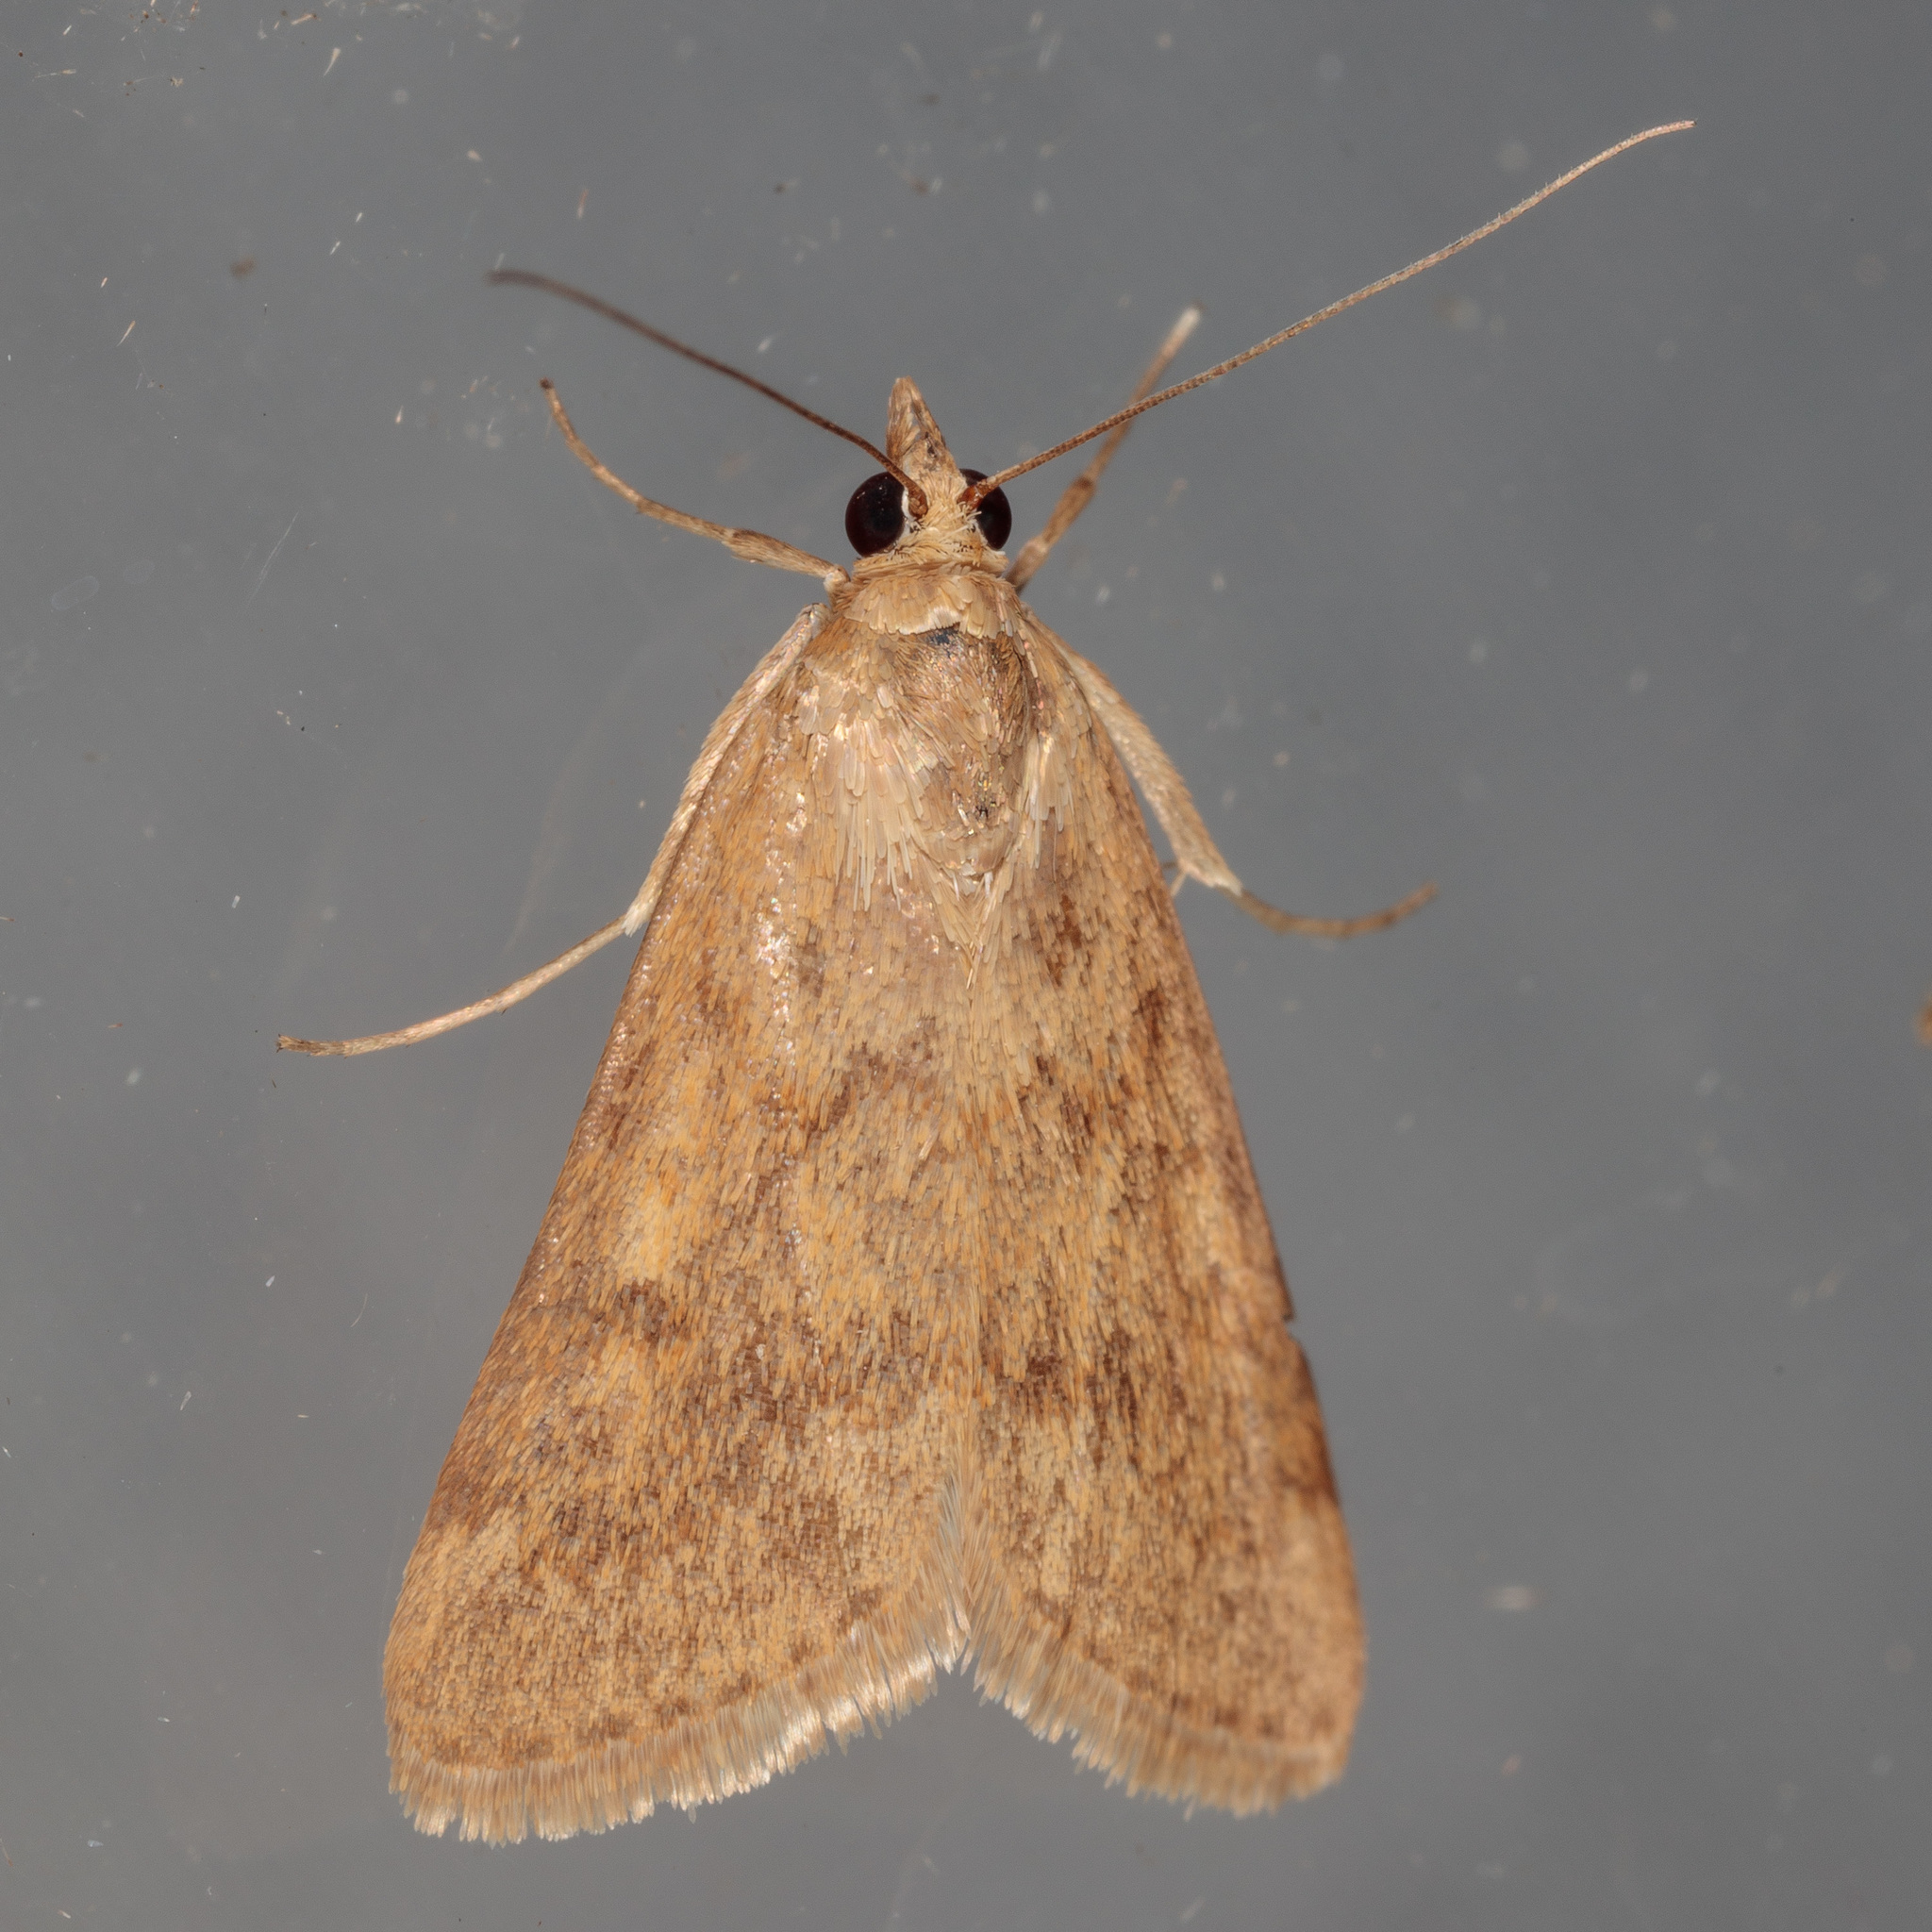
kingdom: Animalia
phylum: Arthropoda
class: Insecta
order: Lepidoptera
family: Crambidae
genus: Achyra
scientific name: Achyra rantalis
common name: Garden webworm
